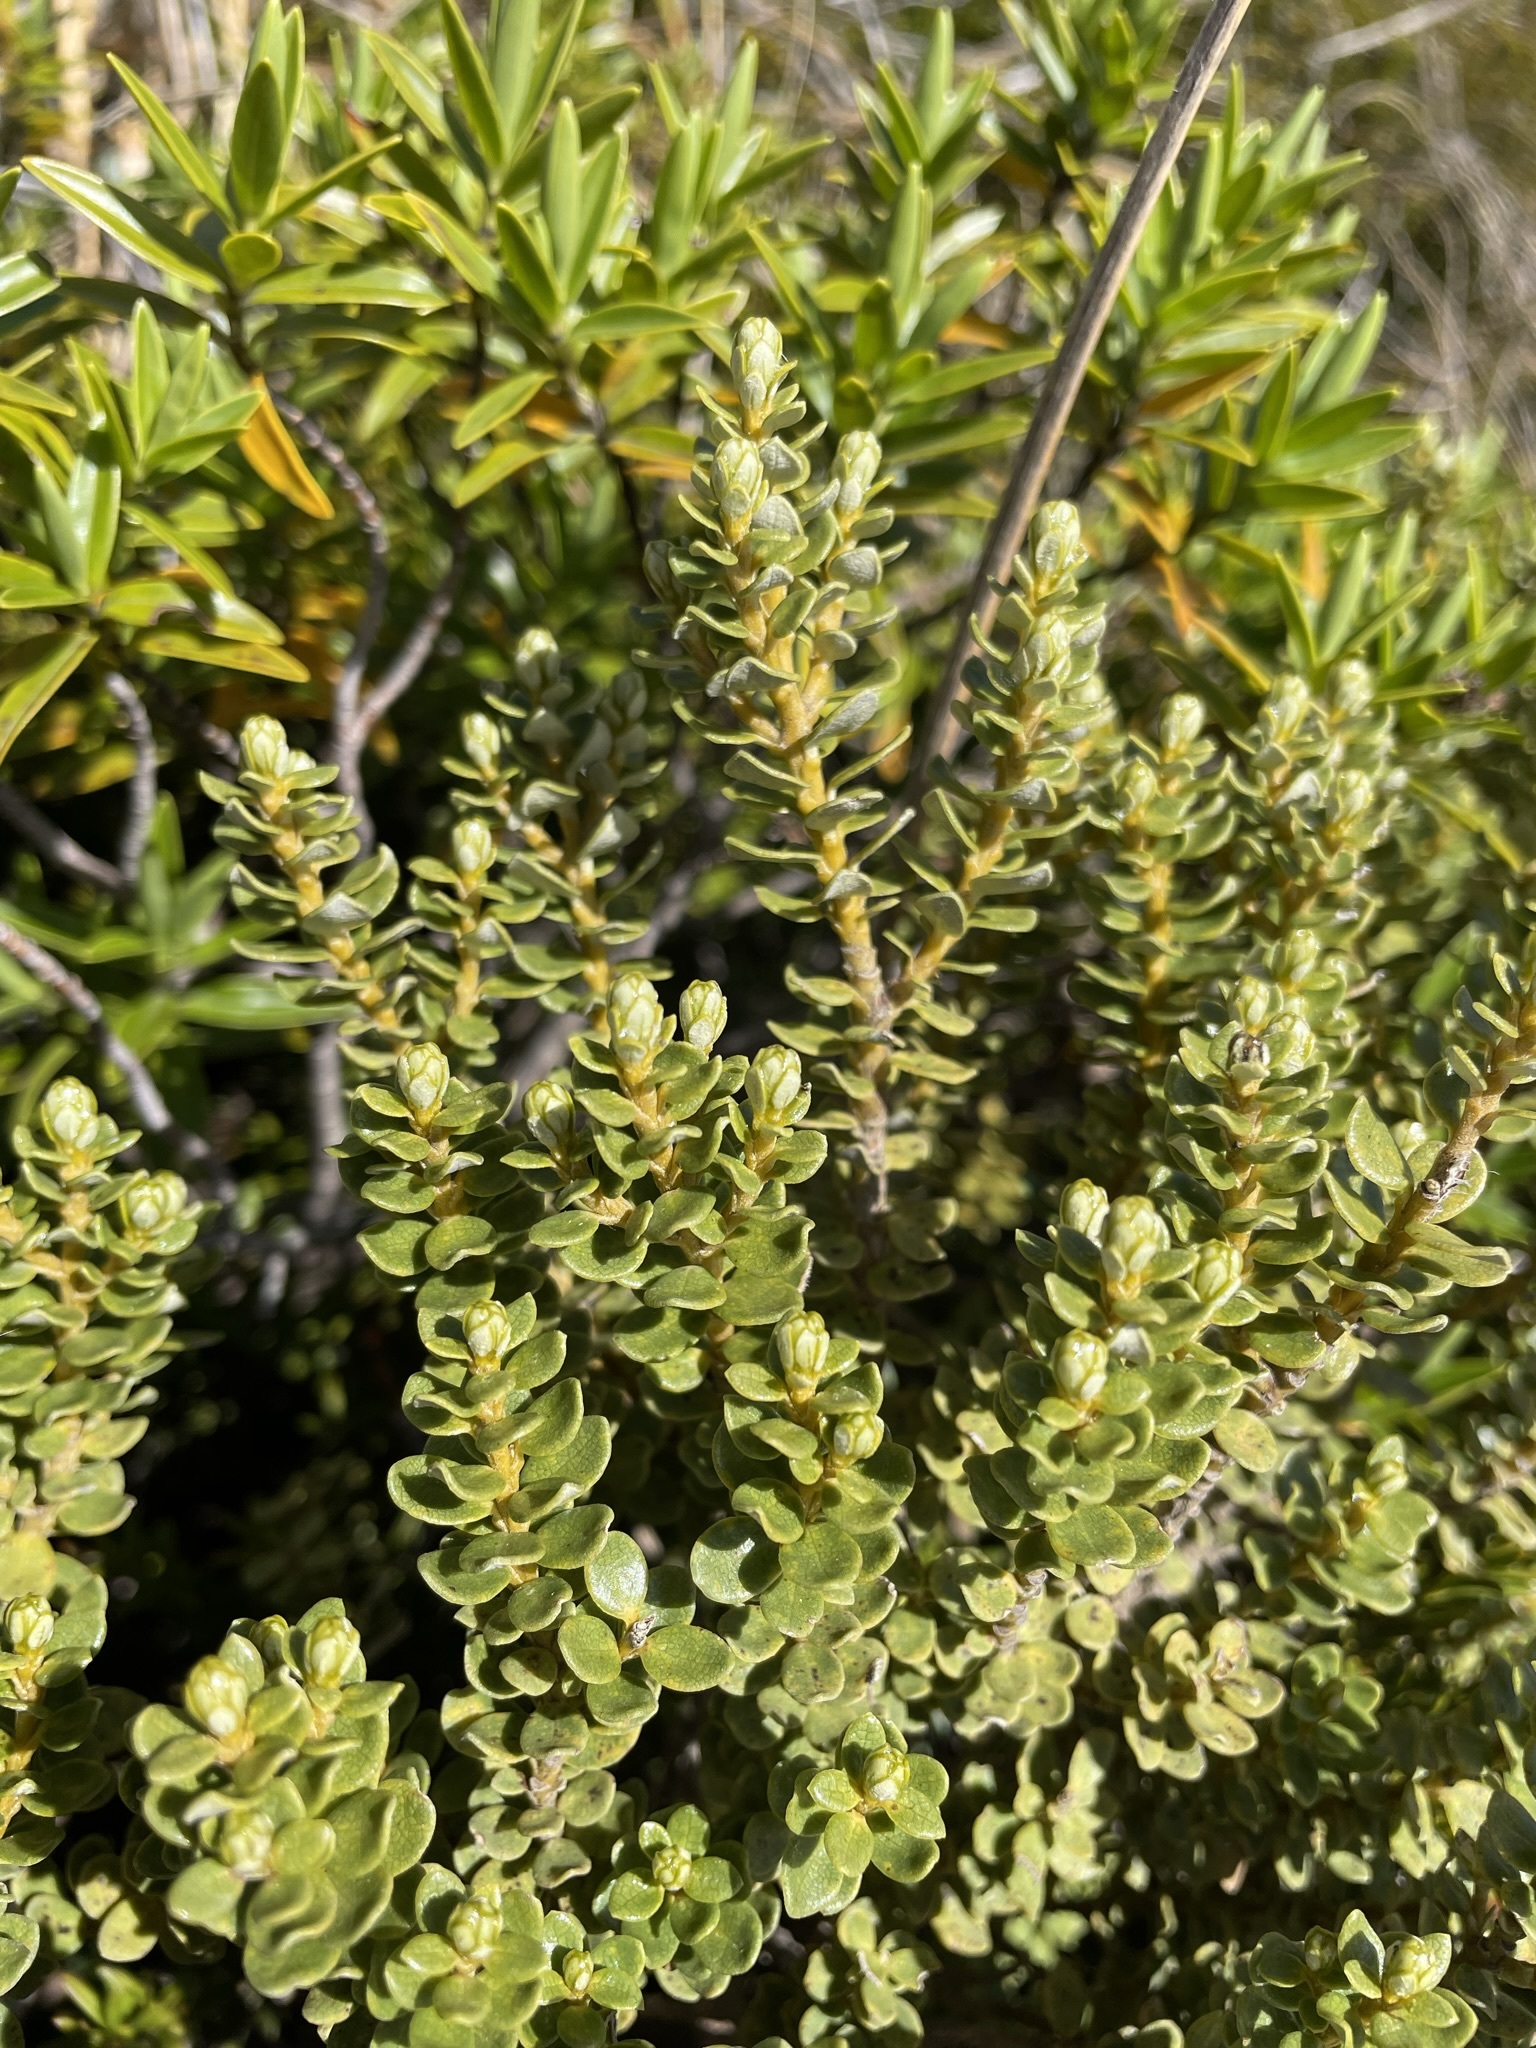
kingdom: Plantae
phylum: Tracheophyta
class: Magnoliopsida
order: Asterales
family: Asteraceae
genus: Olearia
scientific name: Olearia nummularifolia
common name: Sticky daisybush
